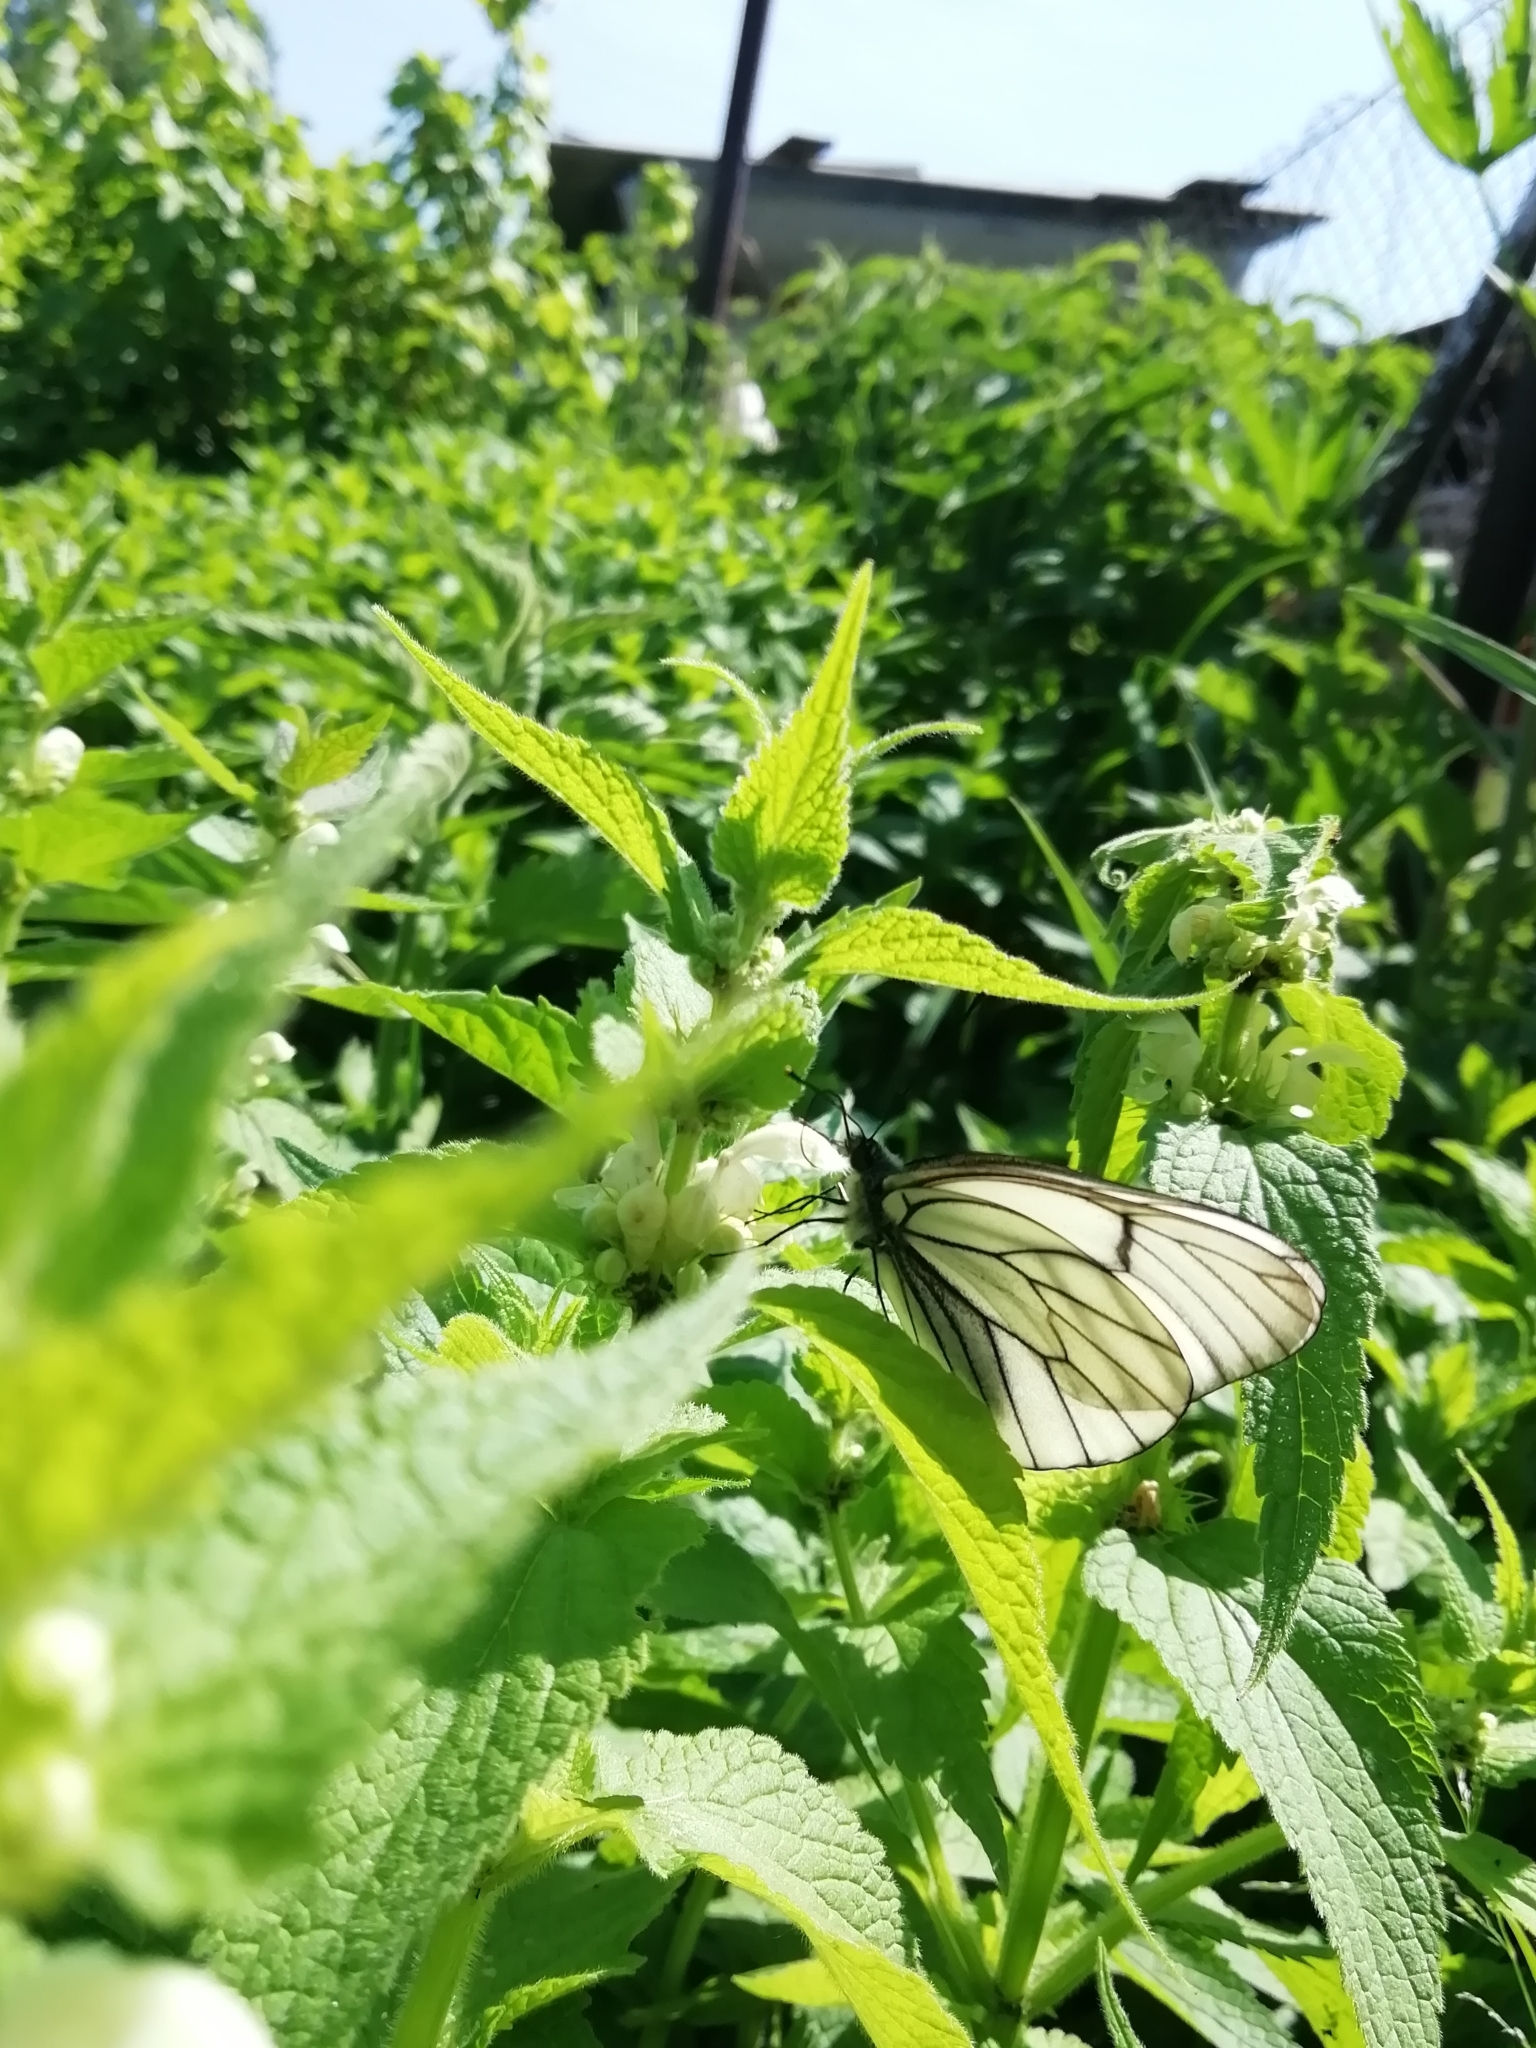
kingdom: Animalia
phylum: Arthropoda
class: Insecta
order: Lepidoptera
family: Pieridae
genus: Aporia
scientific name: Aporia crataegi
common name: Black-veined white
